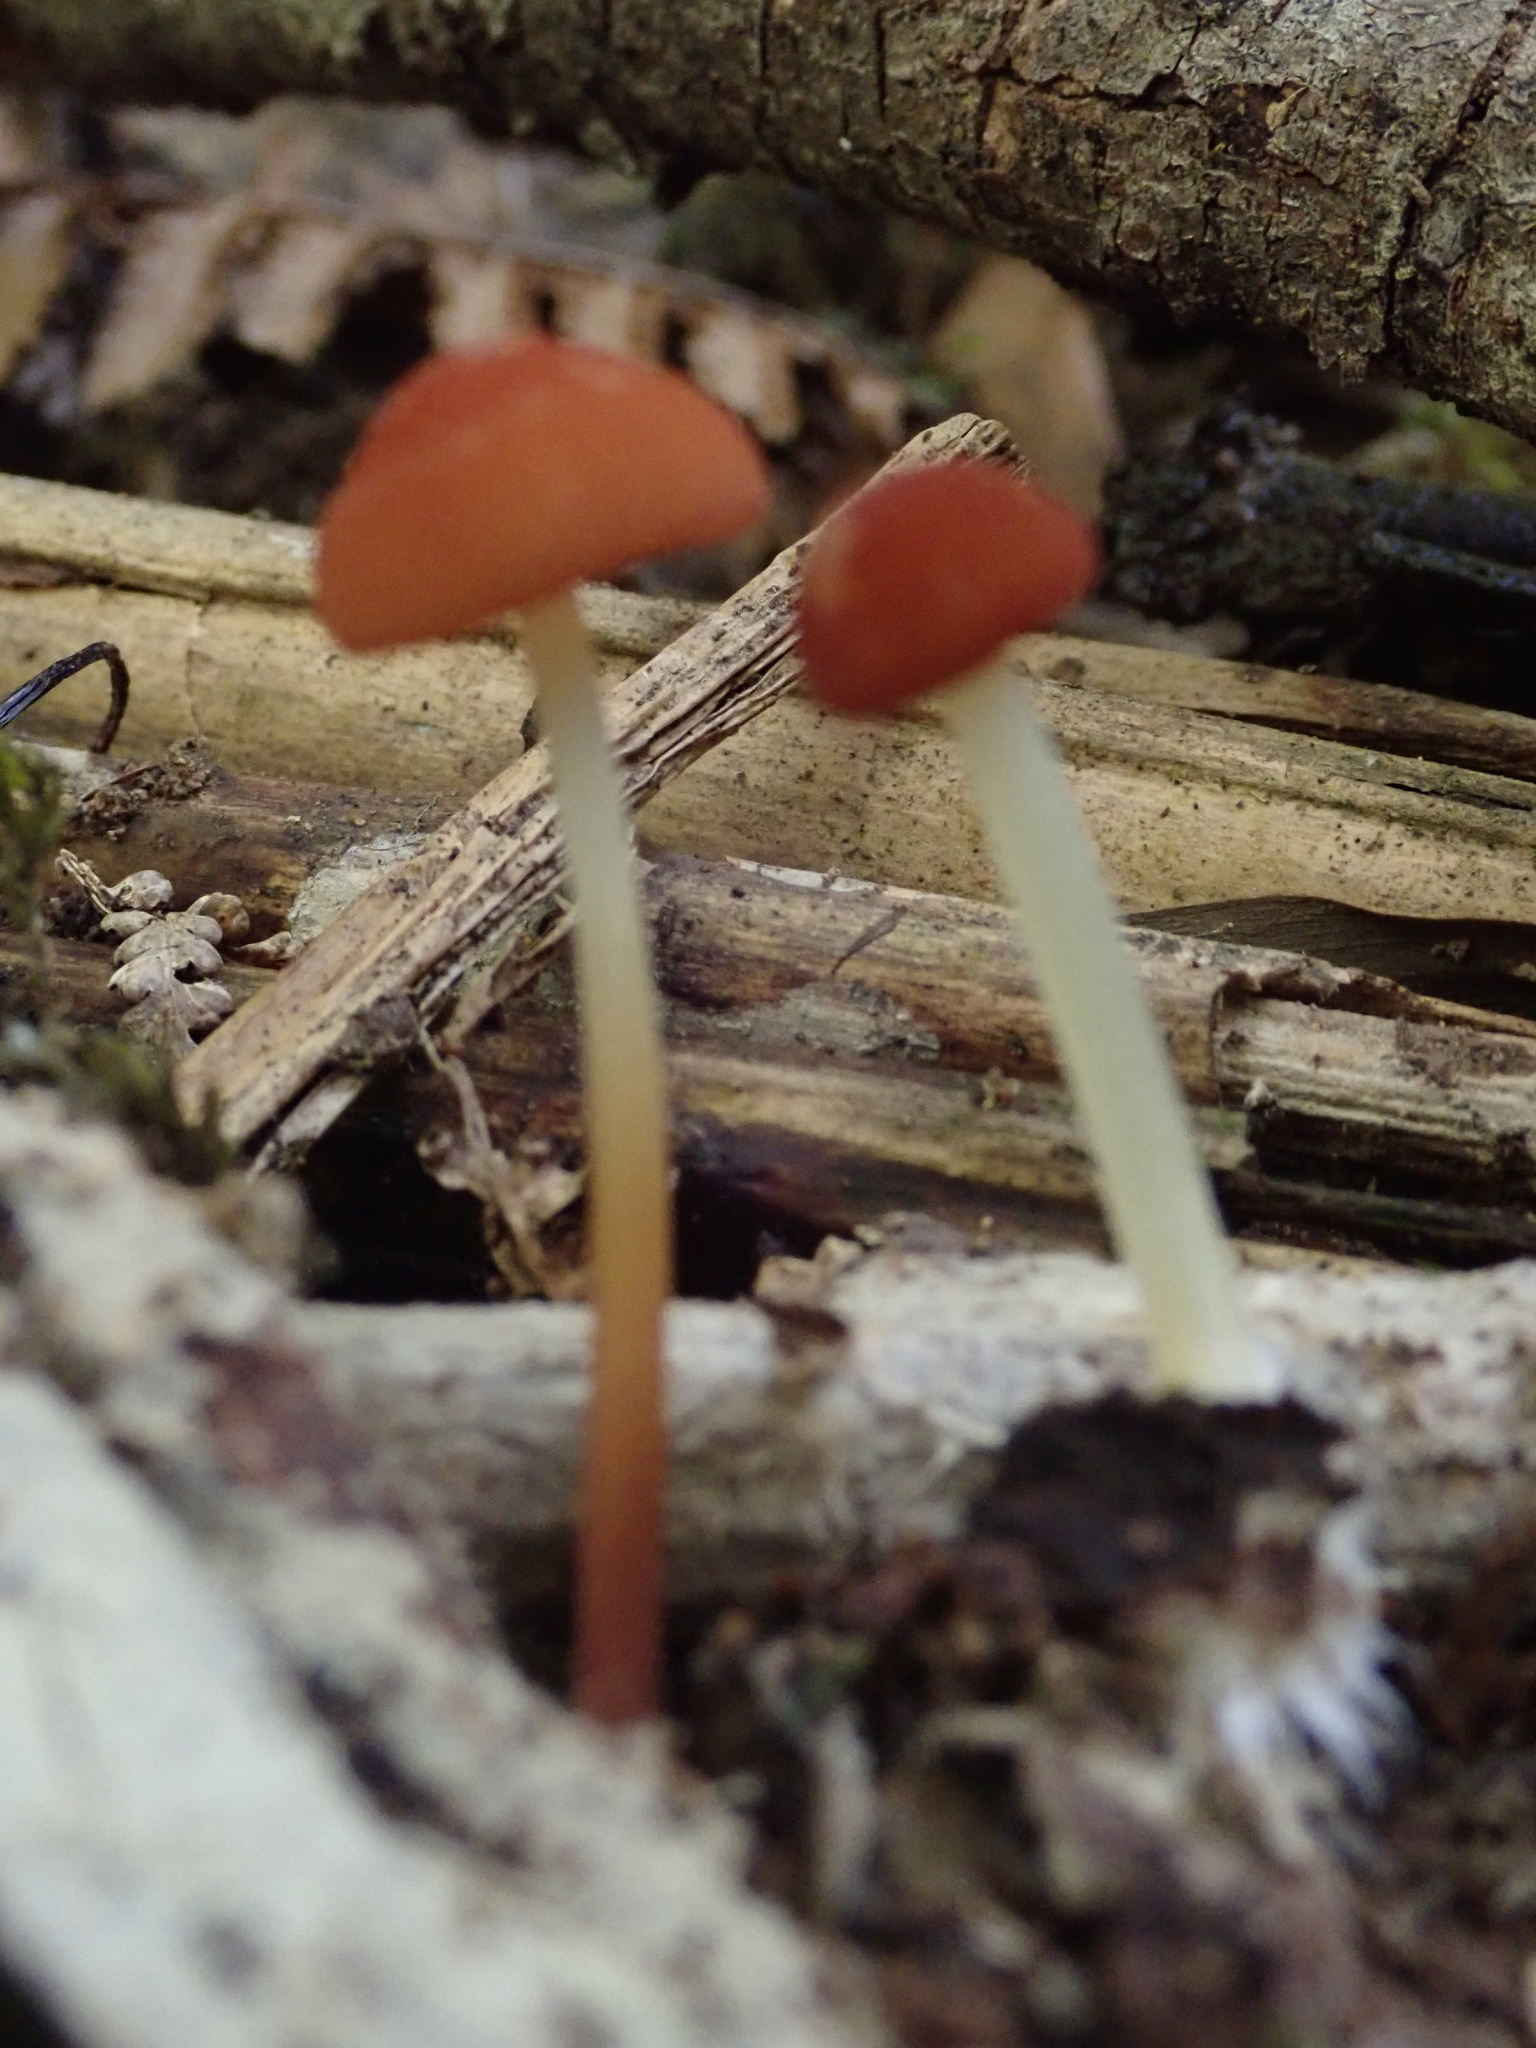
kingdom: Fungi
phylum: Basidiomycota
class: Agaricomycetes
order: Agaricales
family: Marasmiaceae
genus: Marasmius
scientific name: Marasmius elegans
